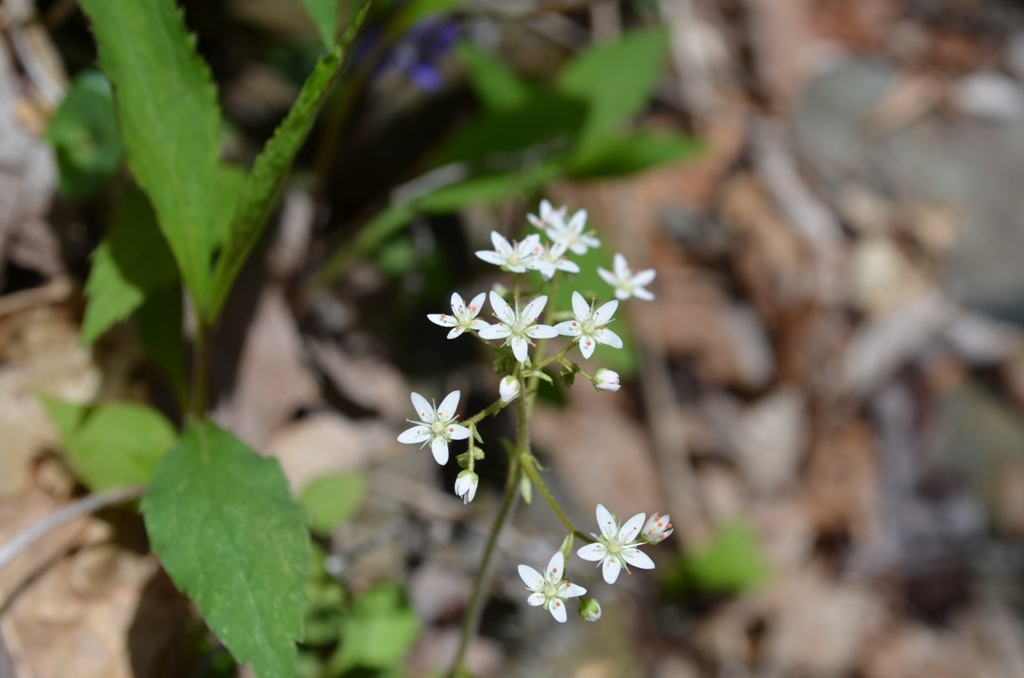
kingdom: Plantae
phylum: Tracheophyta
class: Magnoliopsida
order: Saxifragales
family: Saxifragaceae
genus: Micranthes
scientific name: Micranthes careyana
